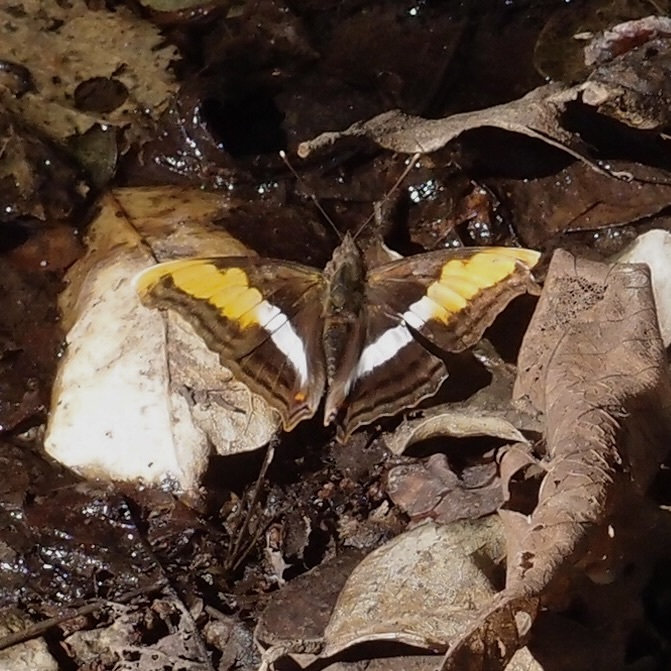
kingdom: Animalia
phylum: Arthropoda
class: Insecta
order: Lepidoptera
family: Nymphalidae
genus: Doxocopa
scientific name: Doxocopa laure
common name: Silver emperor
